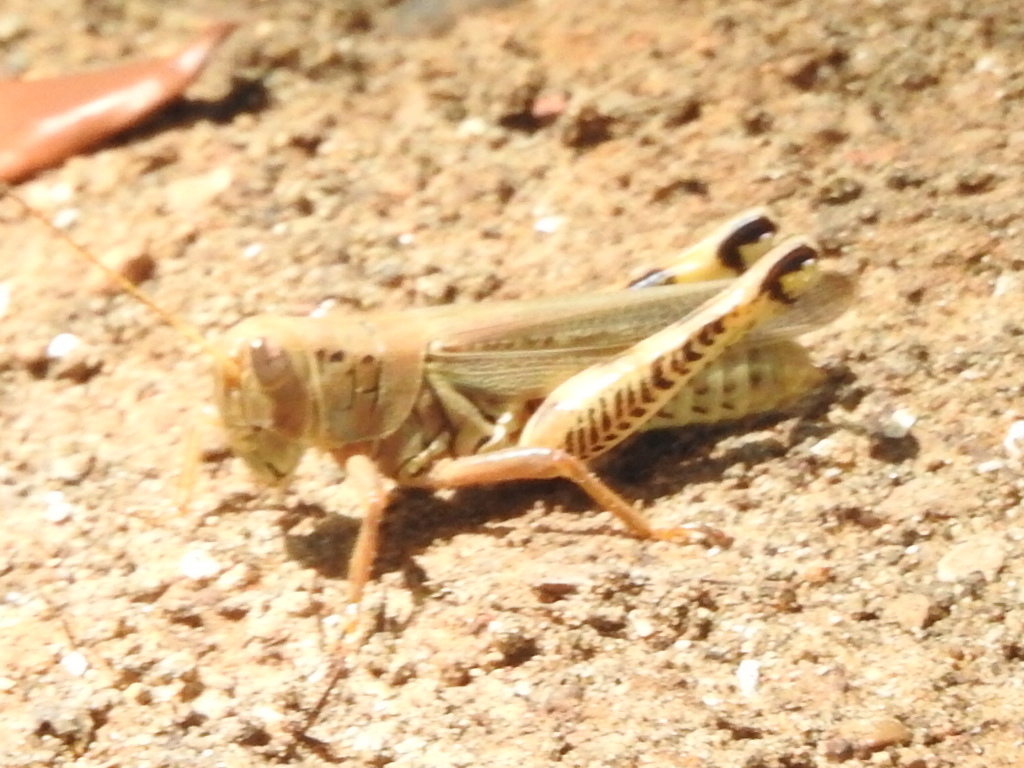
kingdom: Animalia
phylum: Arthropoda
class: Insecta
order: Orthoptera
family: Acrididae
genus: Melanoplus
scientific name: Melanoplus differentialis
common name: Differential grasshopper
